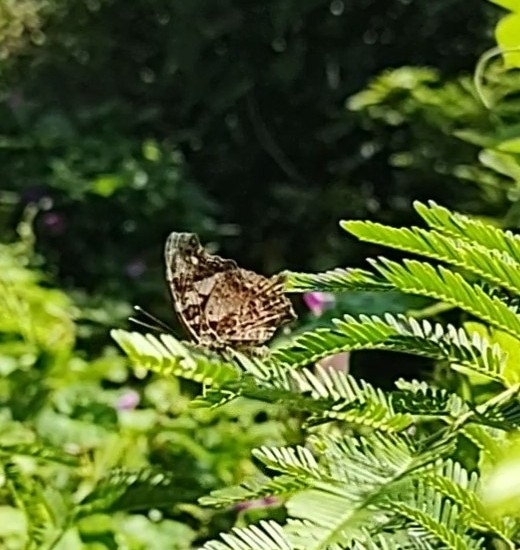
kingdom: Animalia
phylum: Arthropoda
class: Insecta
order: Lepidoptera
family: Nymphalidae
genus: Hypanartia
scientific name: Hypanartia bella
